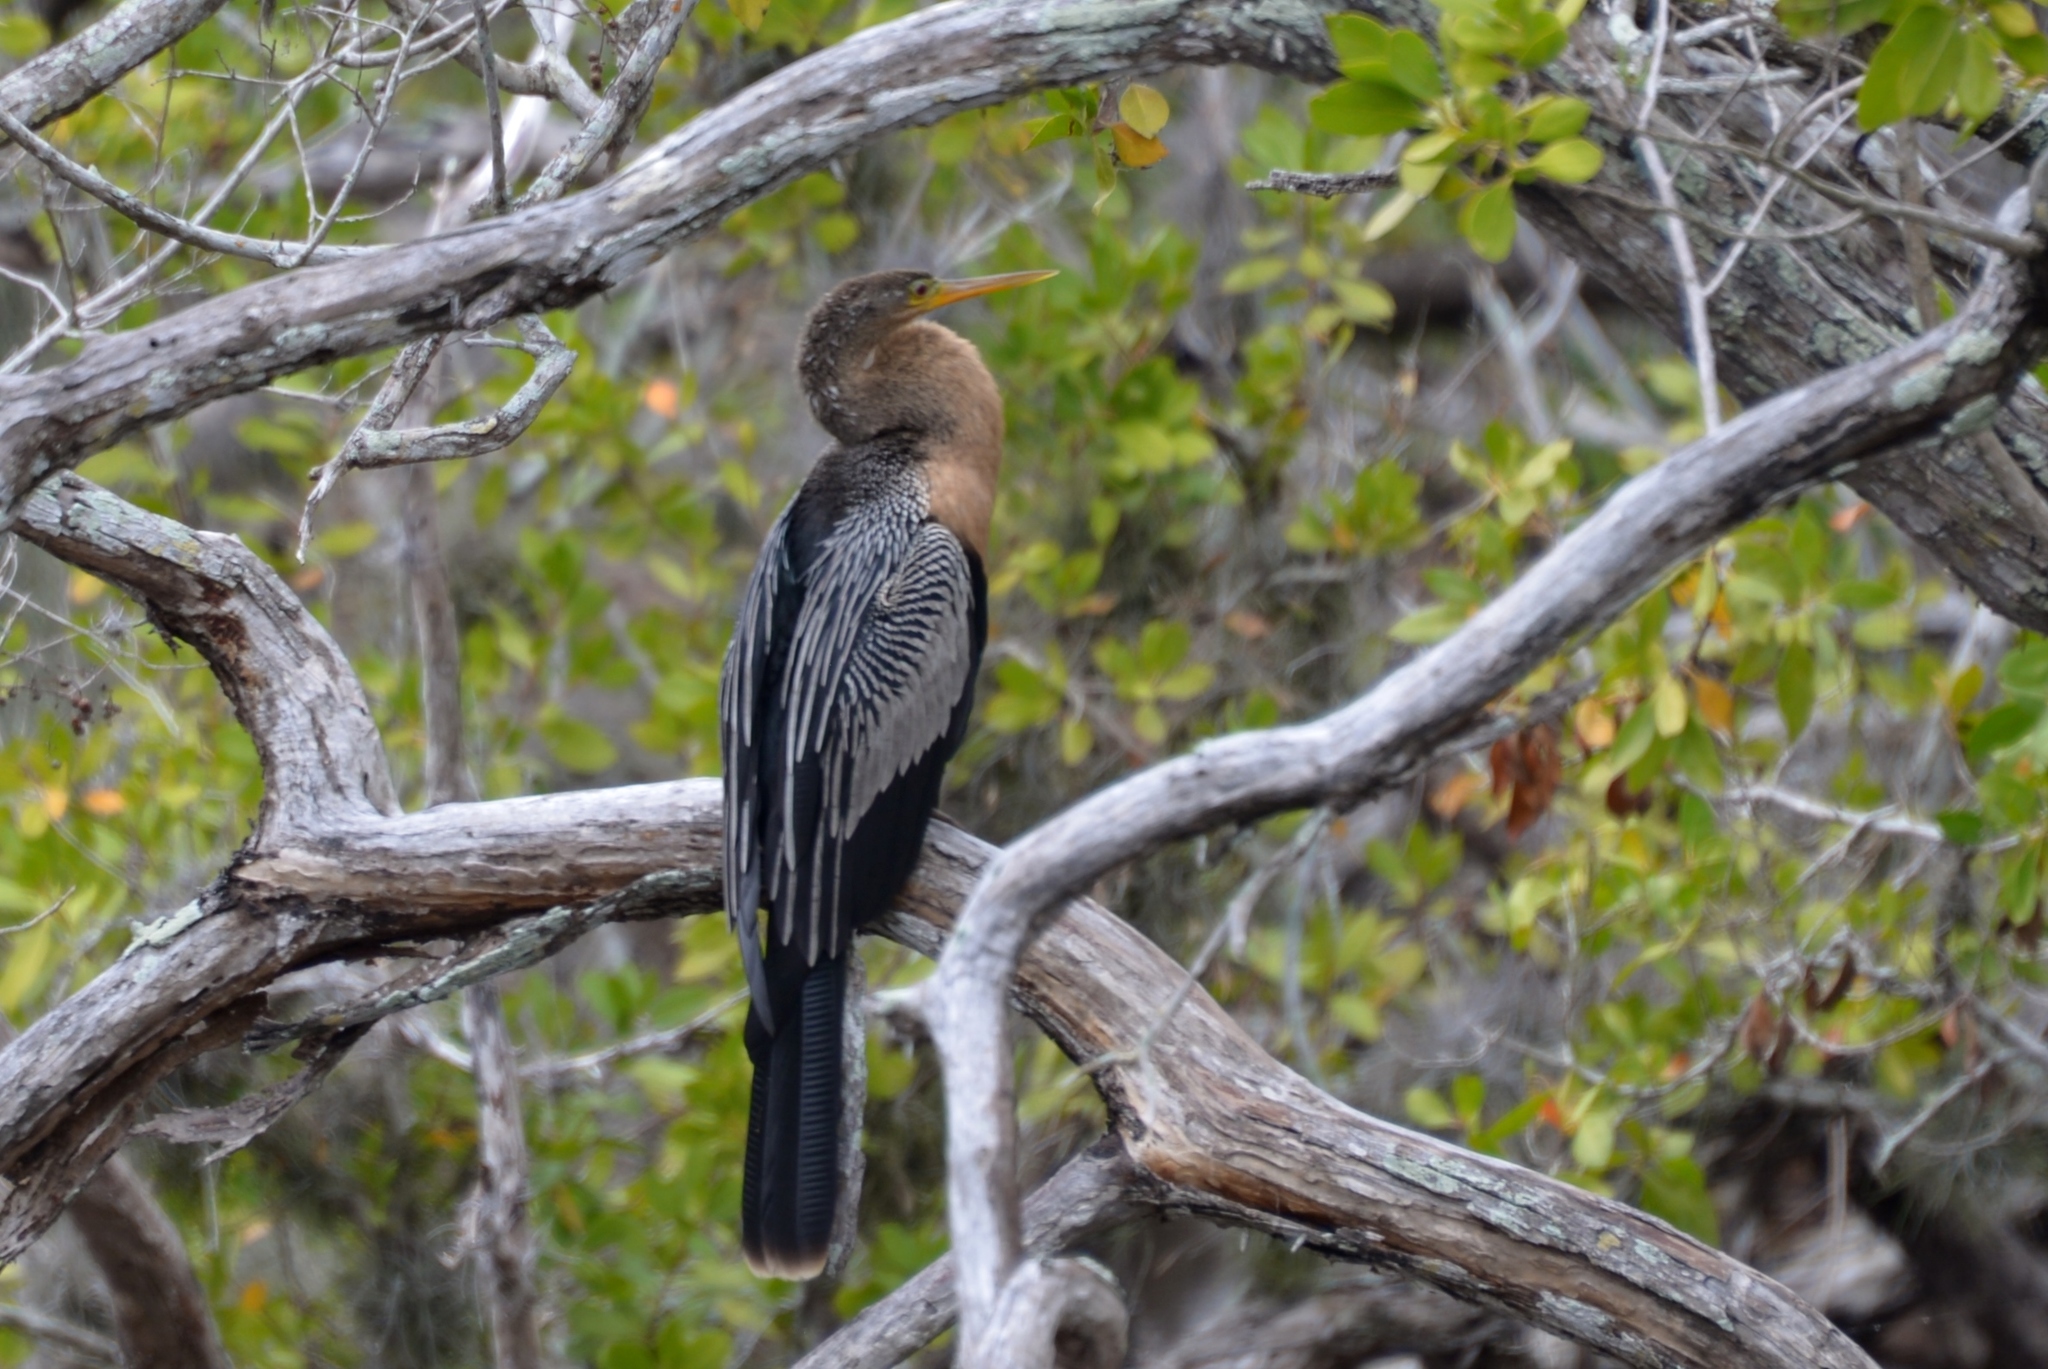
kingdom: Animalia
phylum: Chordata
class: Aves
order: Suliformes
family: Anhingidae
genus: Anhinga
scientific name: Anhinga anhinga
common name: Anhinga
